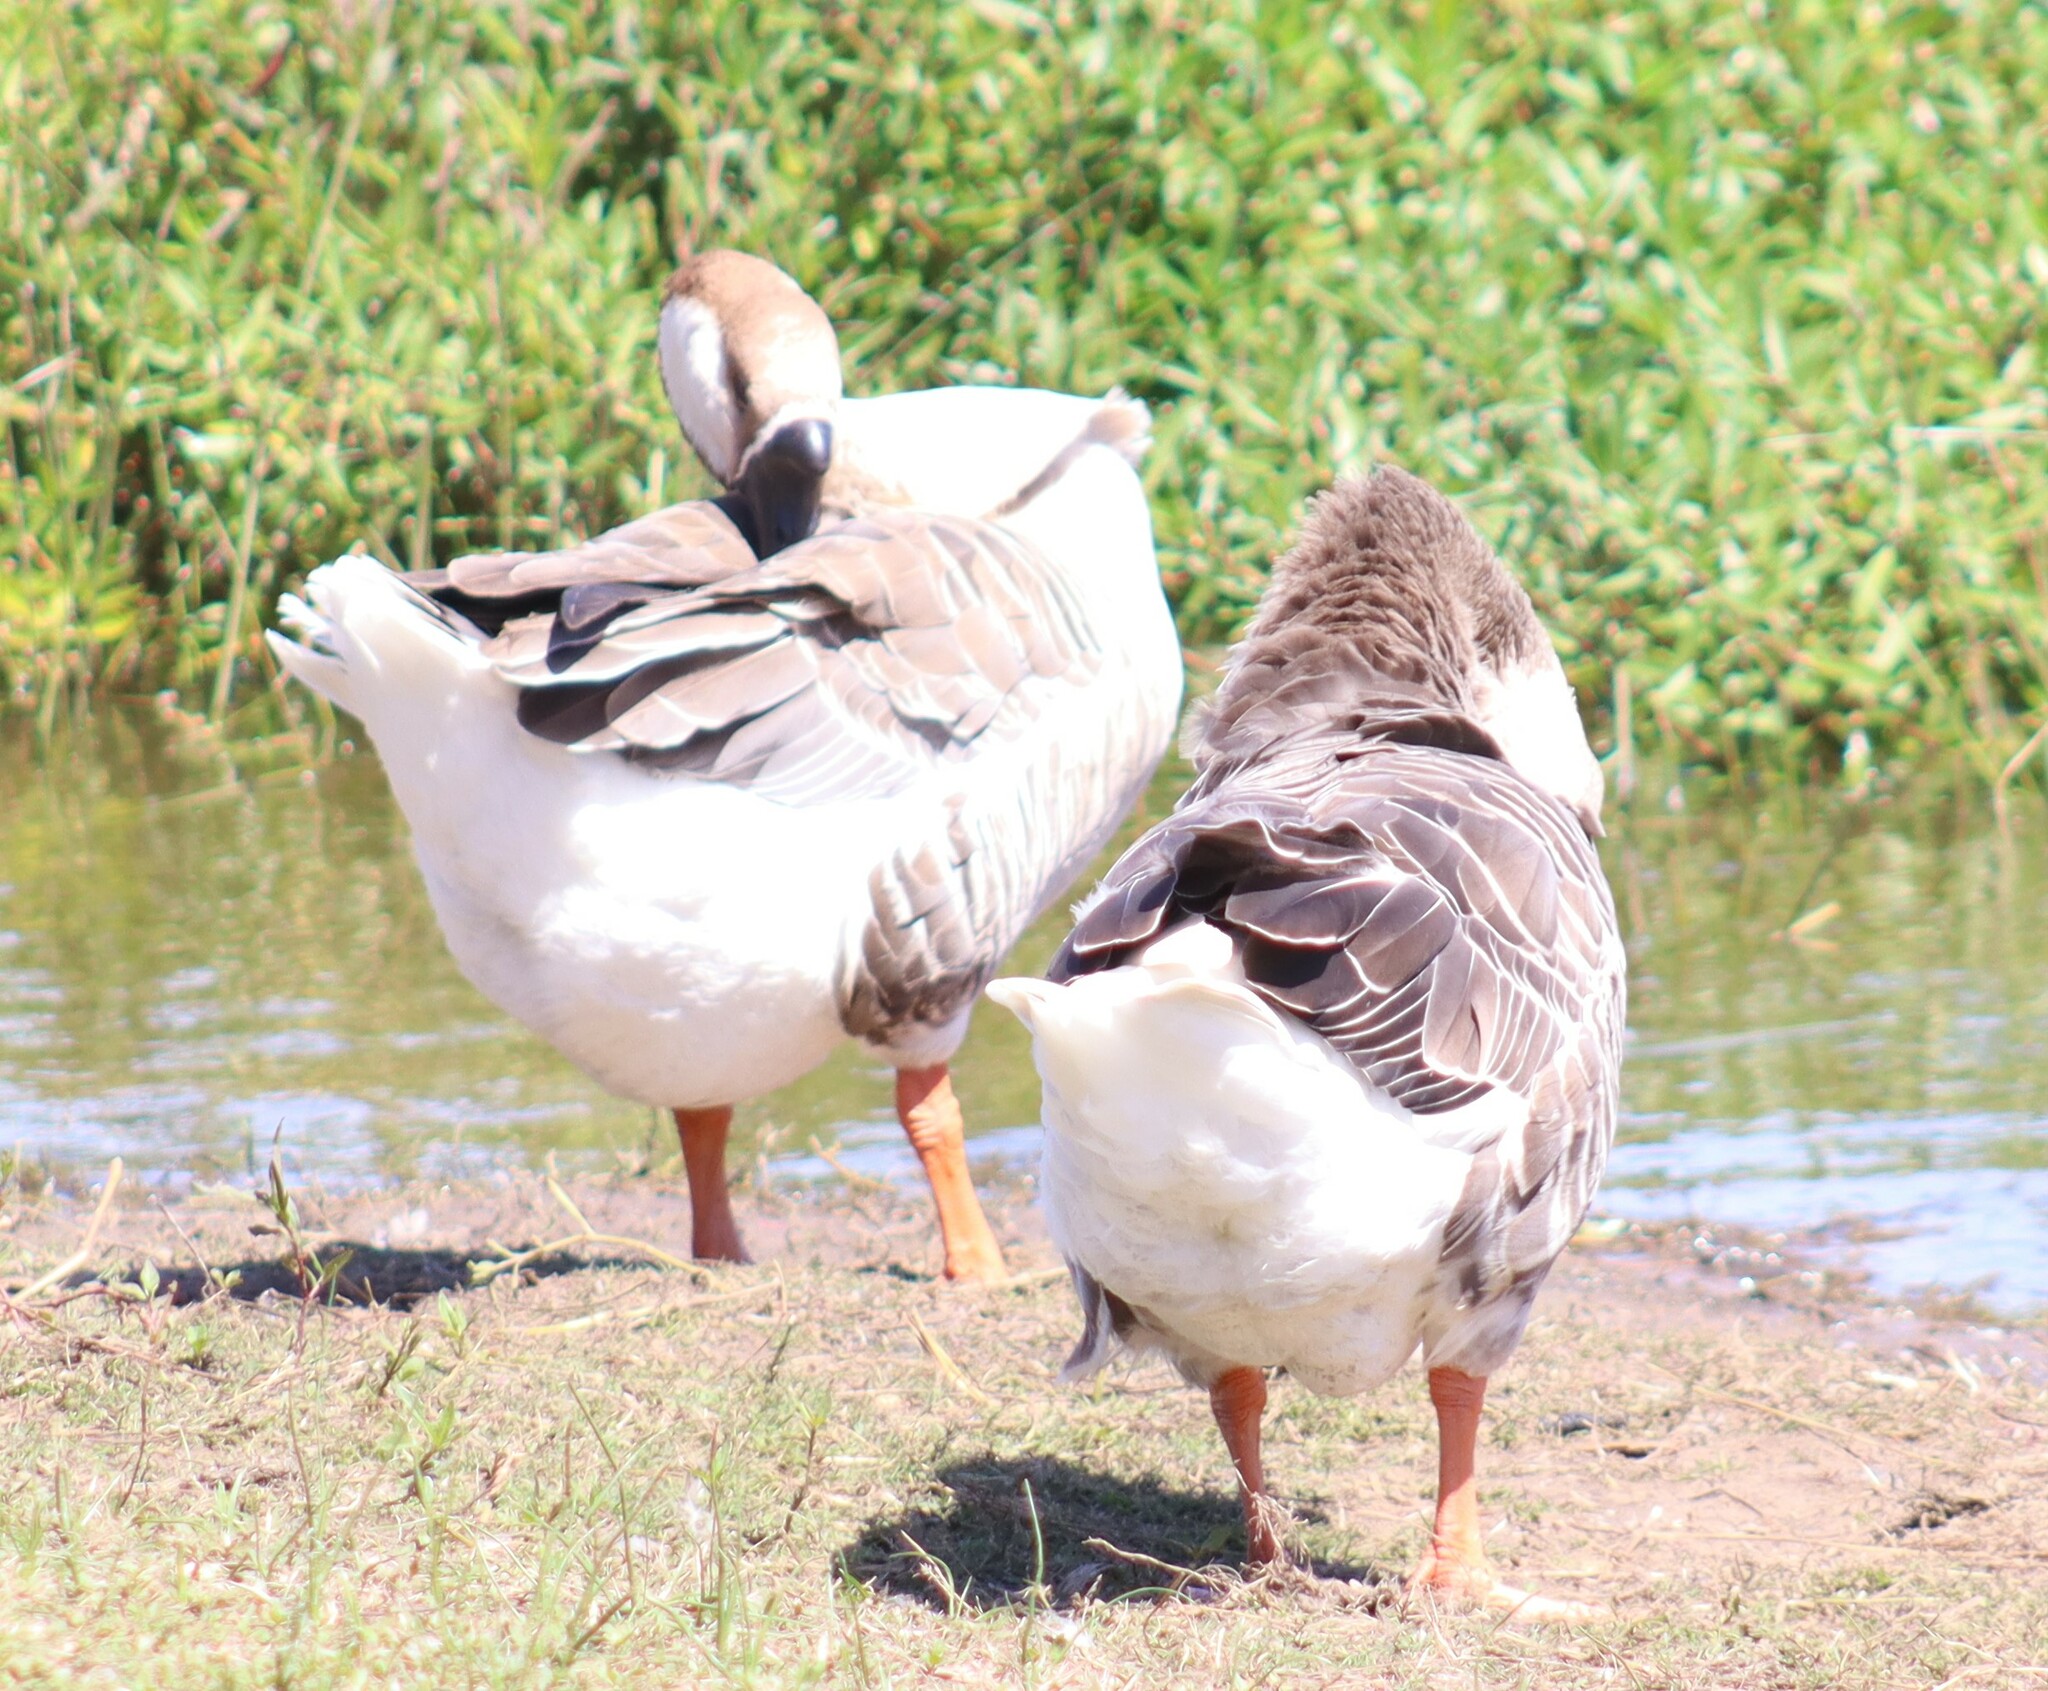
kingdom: Animalia
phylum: Chordata
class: Aves
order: Anseriformes
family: Anatidae
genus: Anser
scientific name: Anser cygnoides
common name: Swan goose
